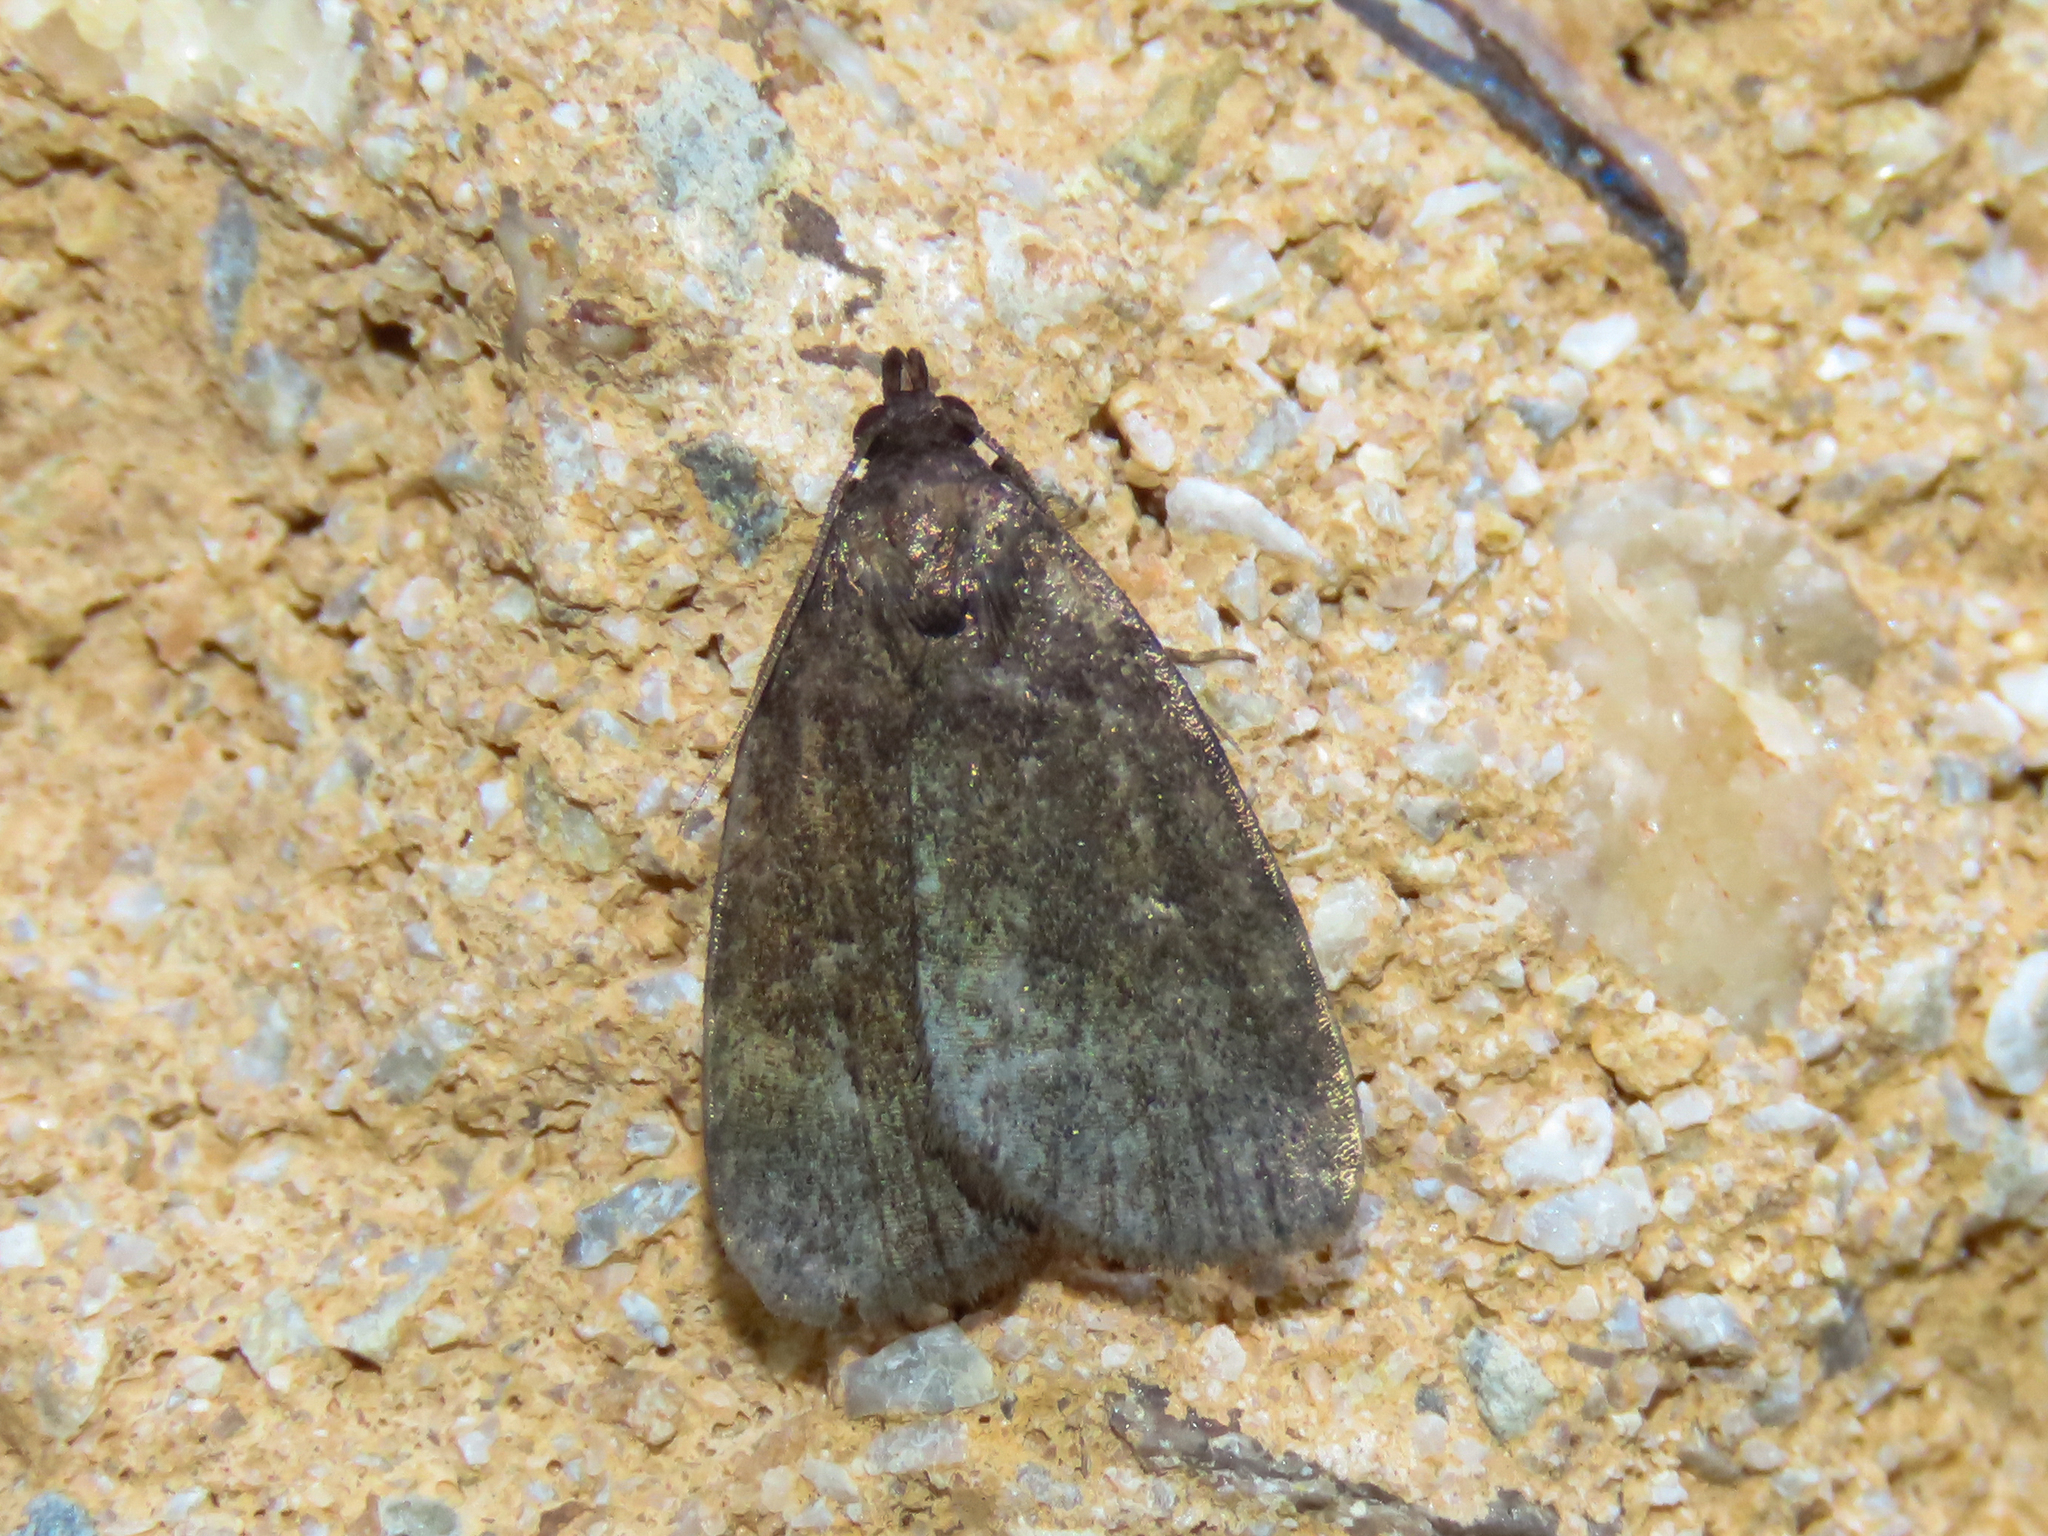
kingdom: Animalia
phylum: Arthropoda
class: Insecta
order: Lepidoptera
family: Erebidae
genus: Idia
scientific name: Idia rotundalis
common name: Rotund idia moth
